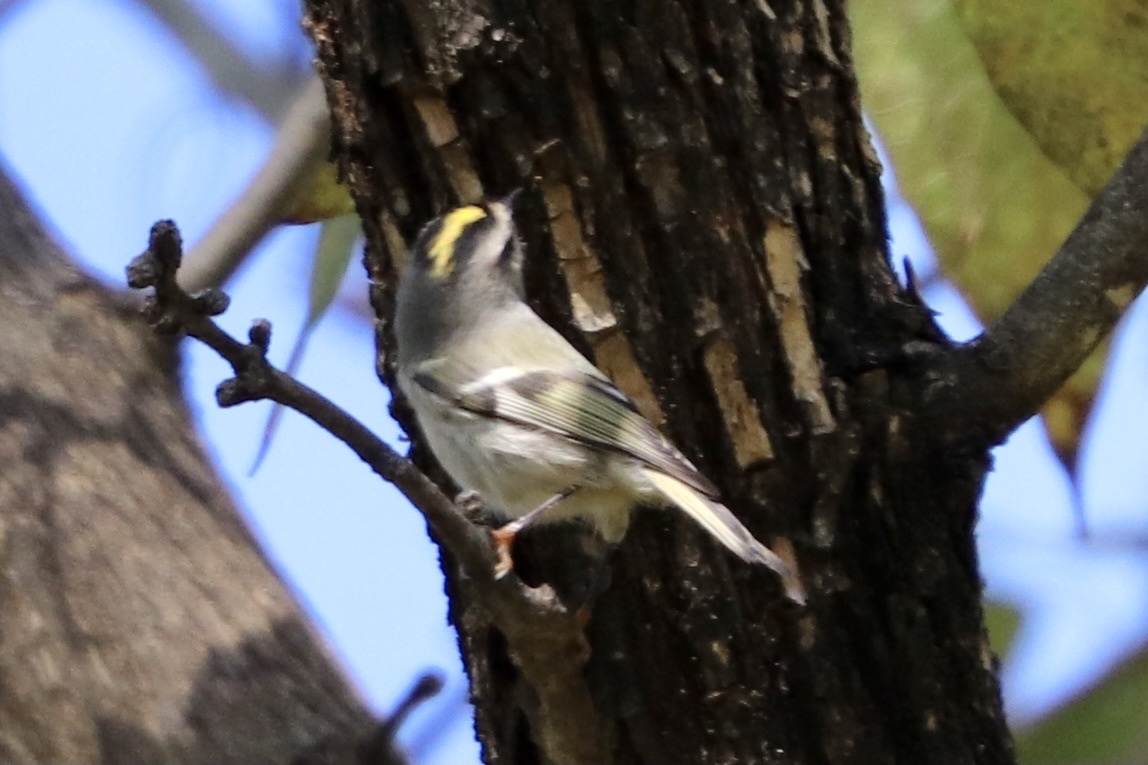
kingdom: Animalia
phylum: Chordata
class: Aves
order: Passeriformes
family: Regulidae
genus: Regulus
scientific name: Regulus satrapa
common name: Golden-crowned kinglet
